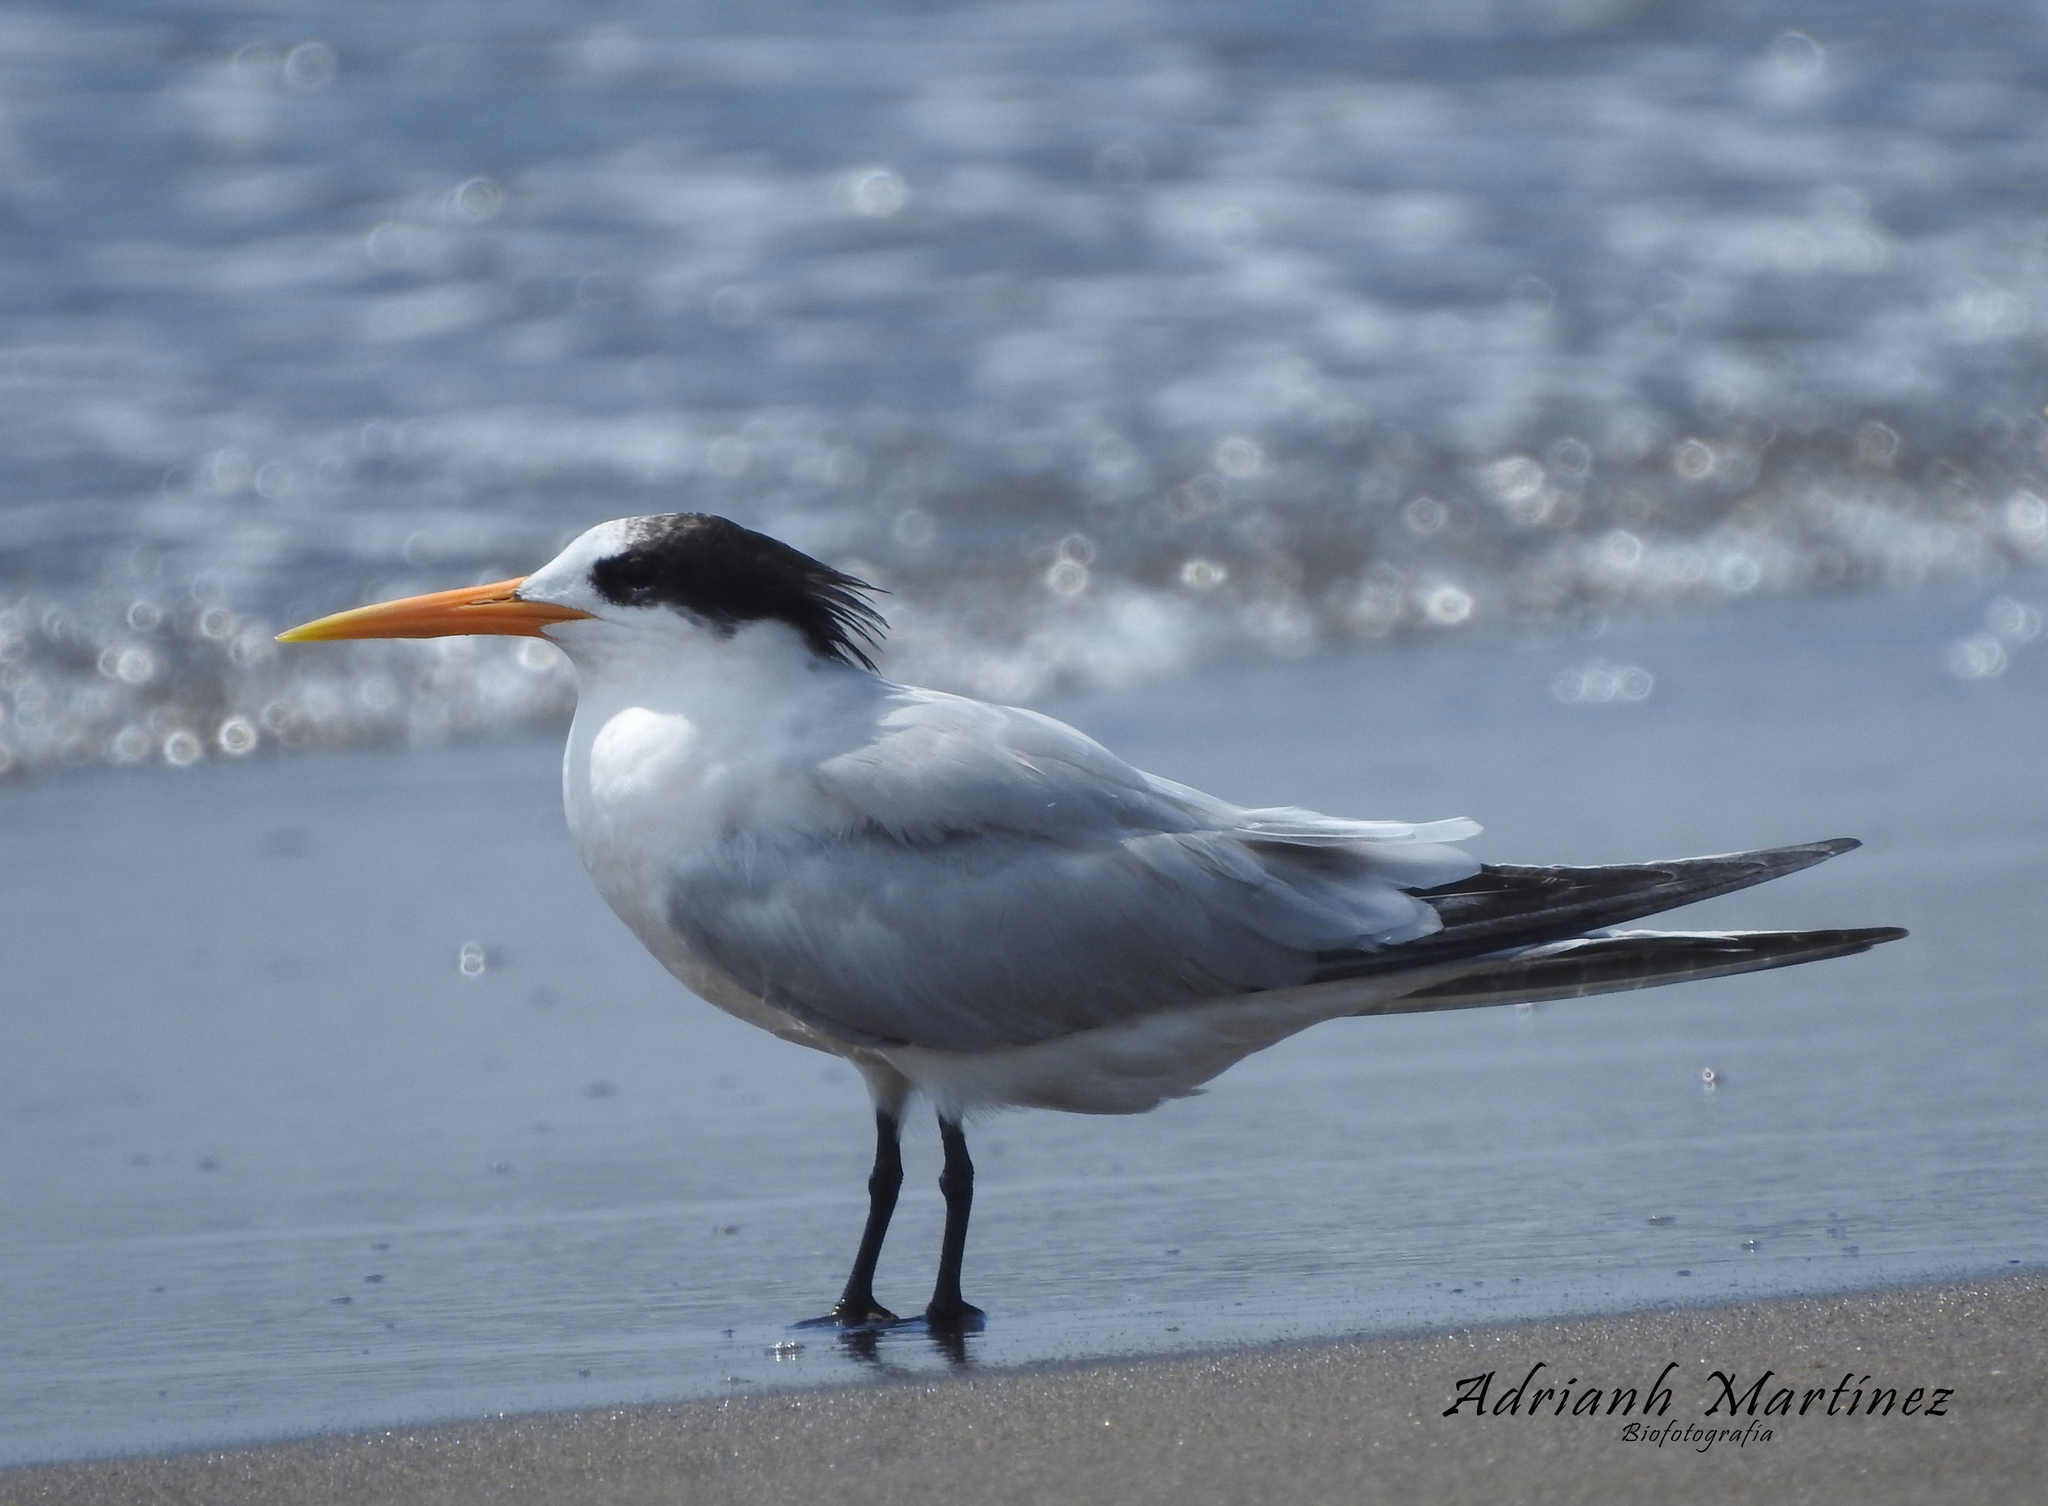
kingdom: Animalia
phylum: Chordata
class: Aves
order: Charadriiformes
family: Laridae
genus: Thalasseus
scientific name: Thalasseus elegans
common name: Elegant tern
